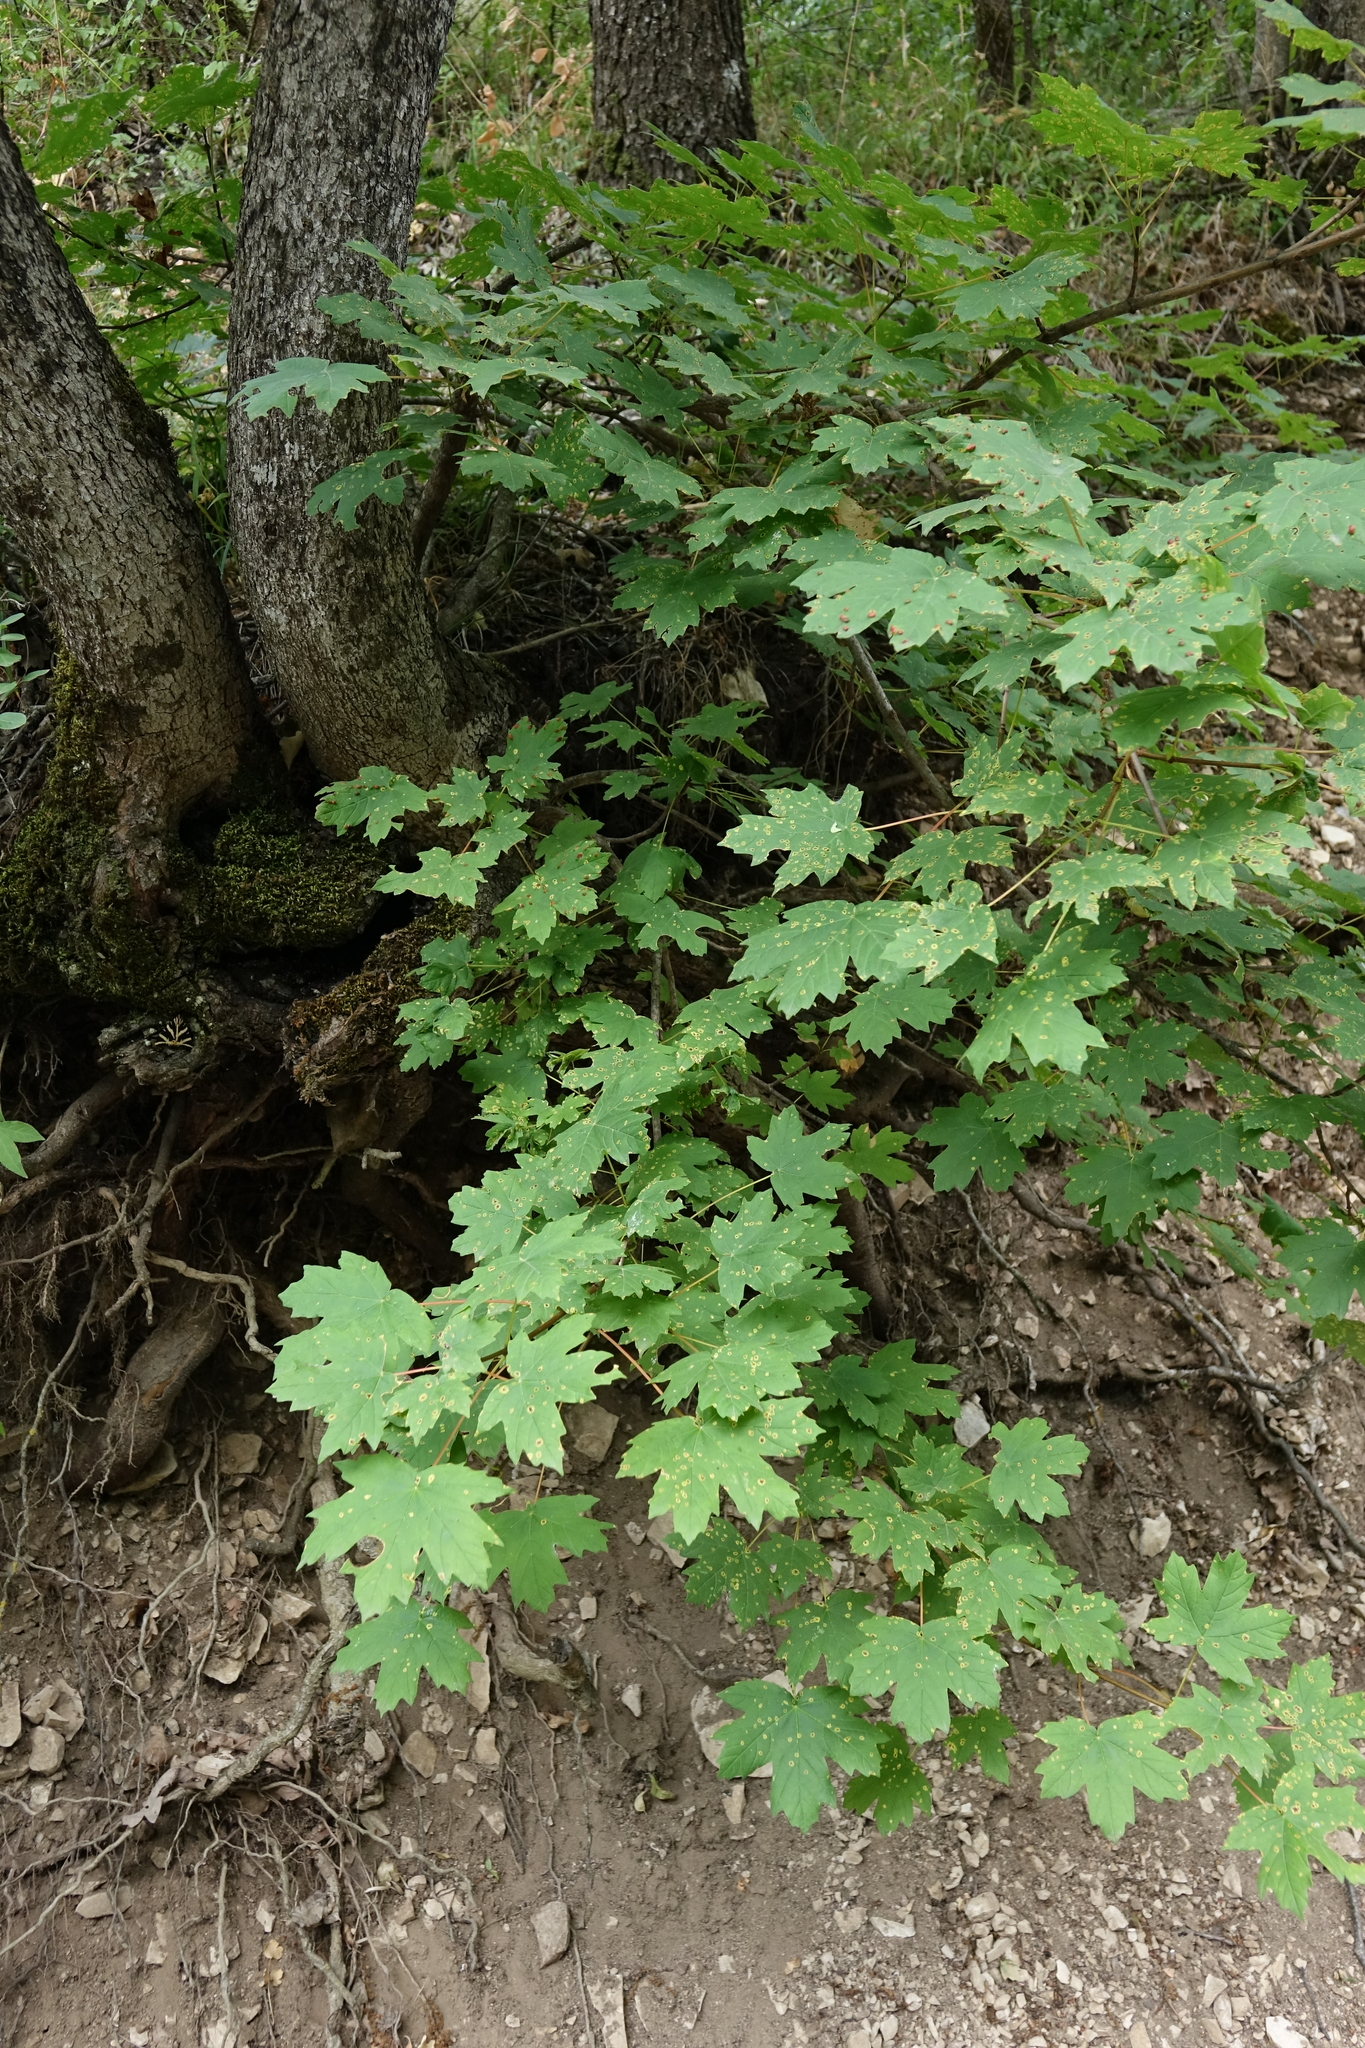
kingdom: Plantae
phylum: Tracheophyta
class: Magnoliopsida
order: Sapindales
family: Sapindaceae
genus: Acer
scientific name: Acer campestre
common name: Field maple
